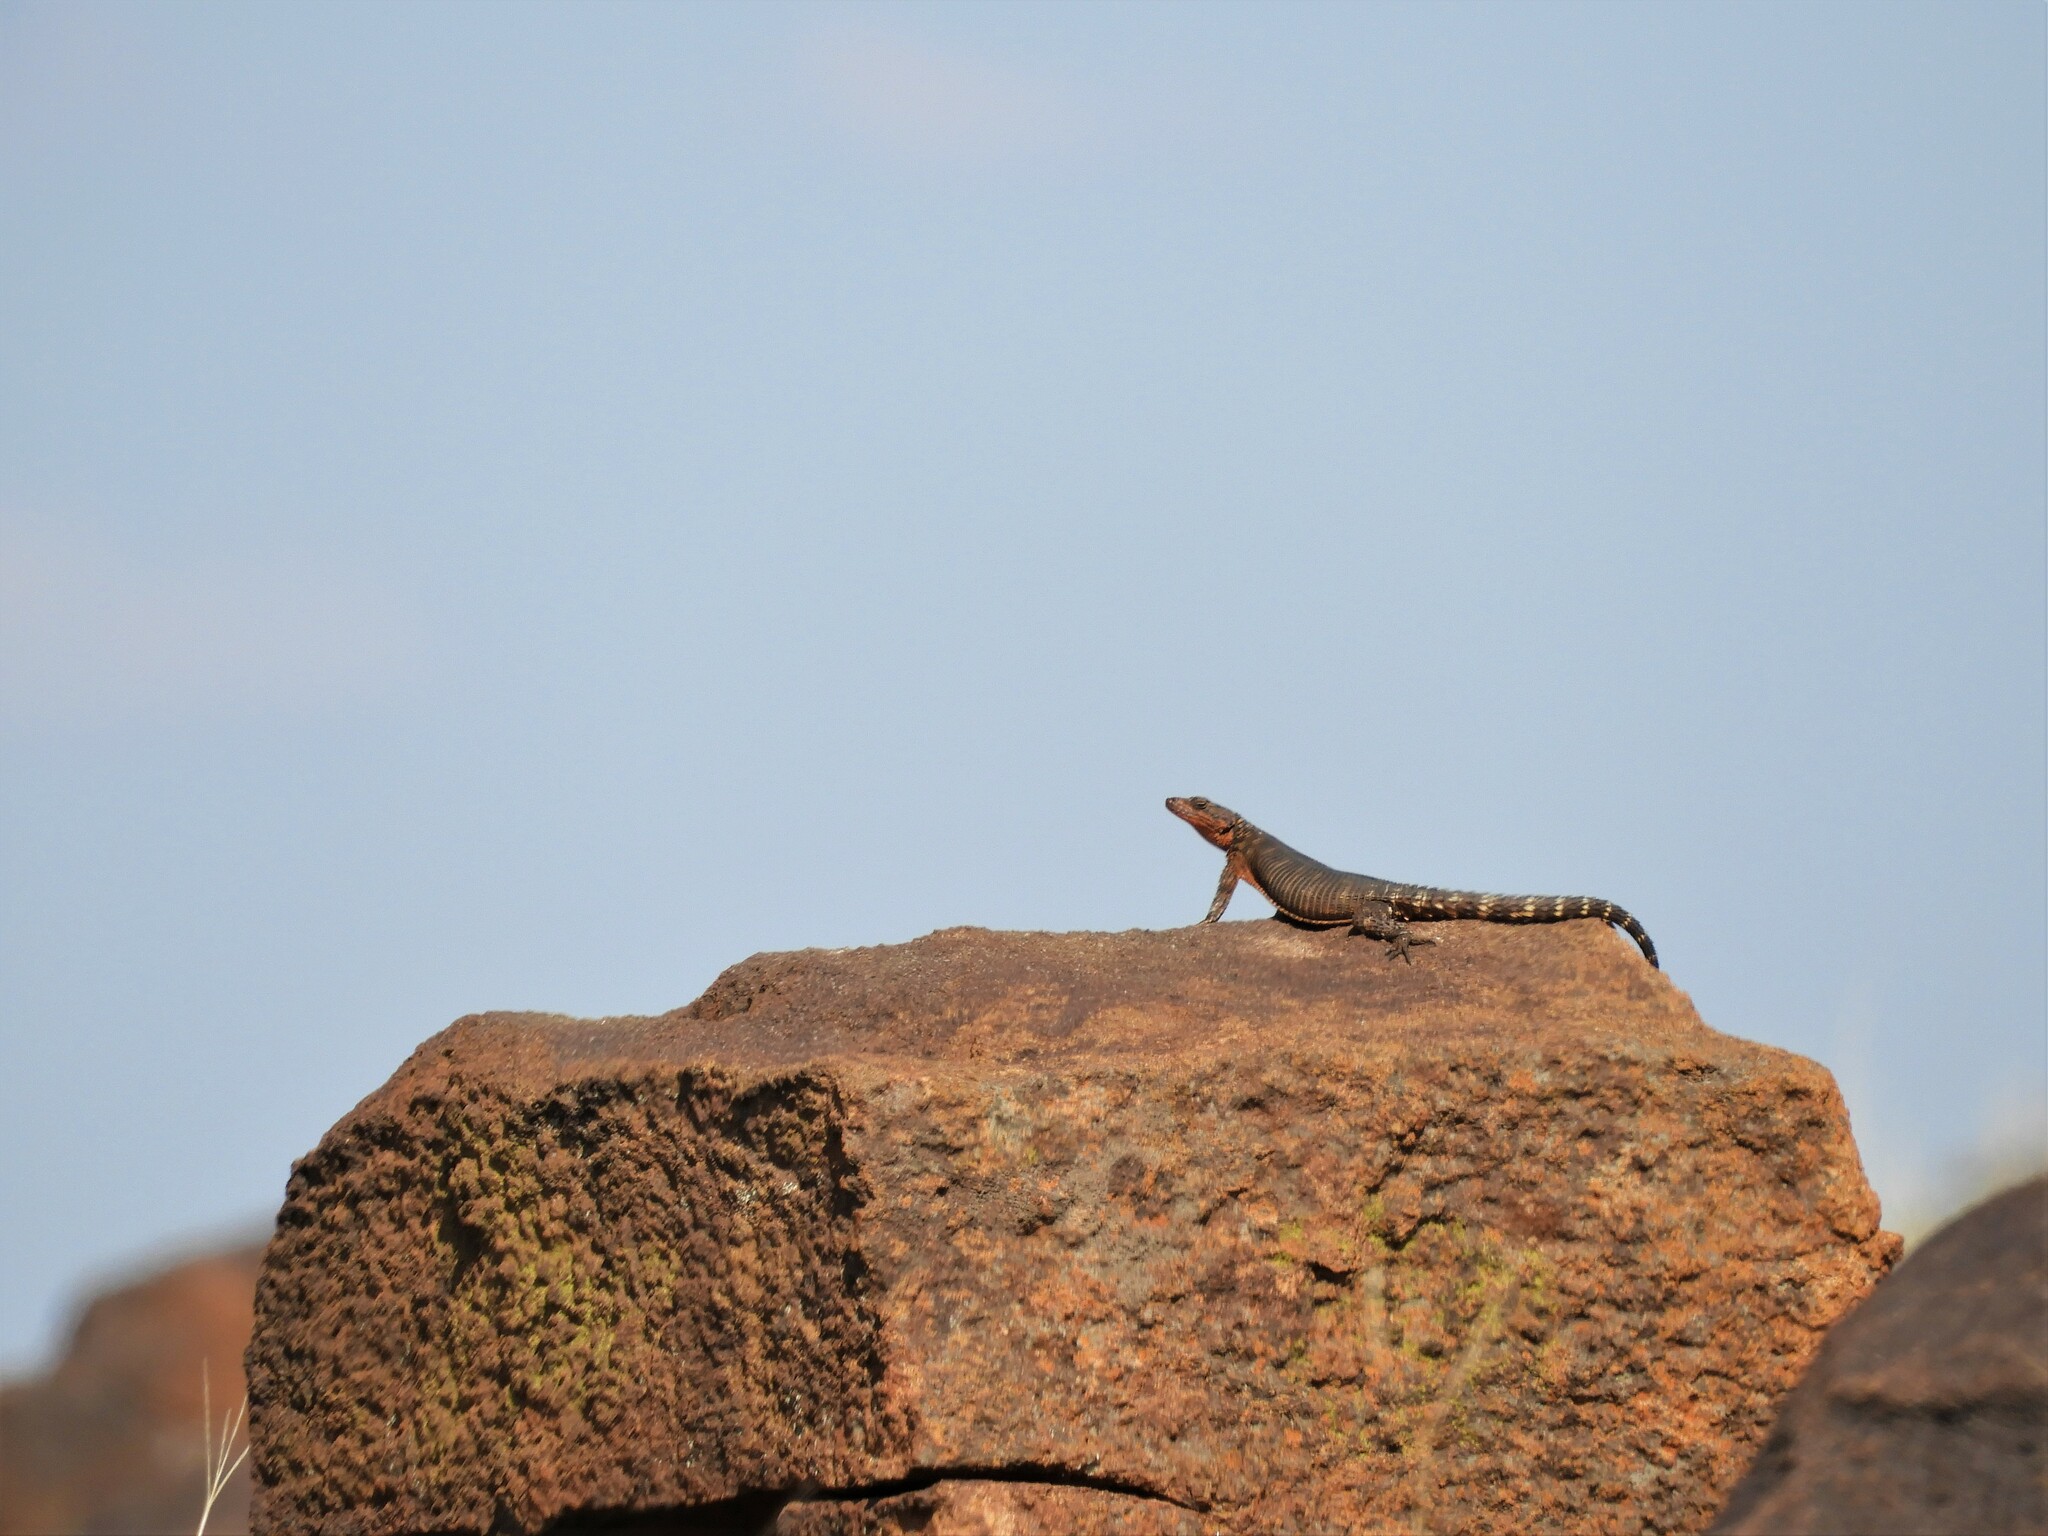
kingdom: Animalia
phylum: Chordata
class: Squamata
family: Cordylidae
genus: Karusasaurus
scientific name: Karusasaurus polyzonus
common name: Karoo girdled lizard
